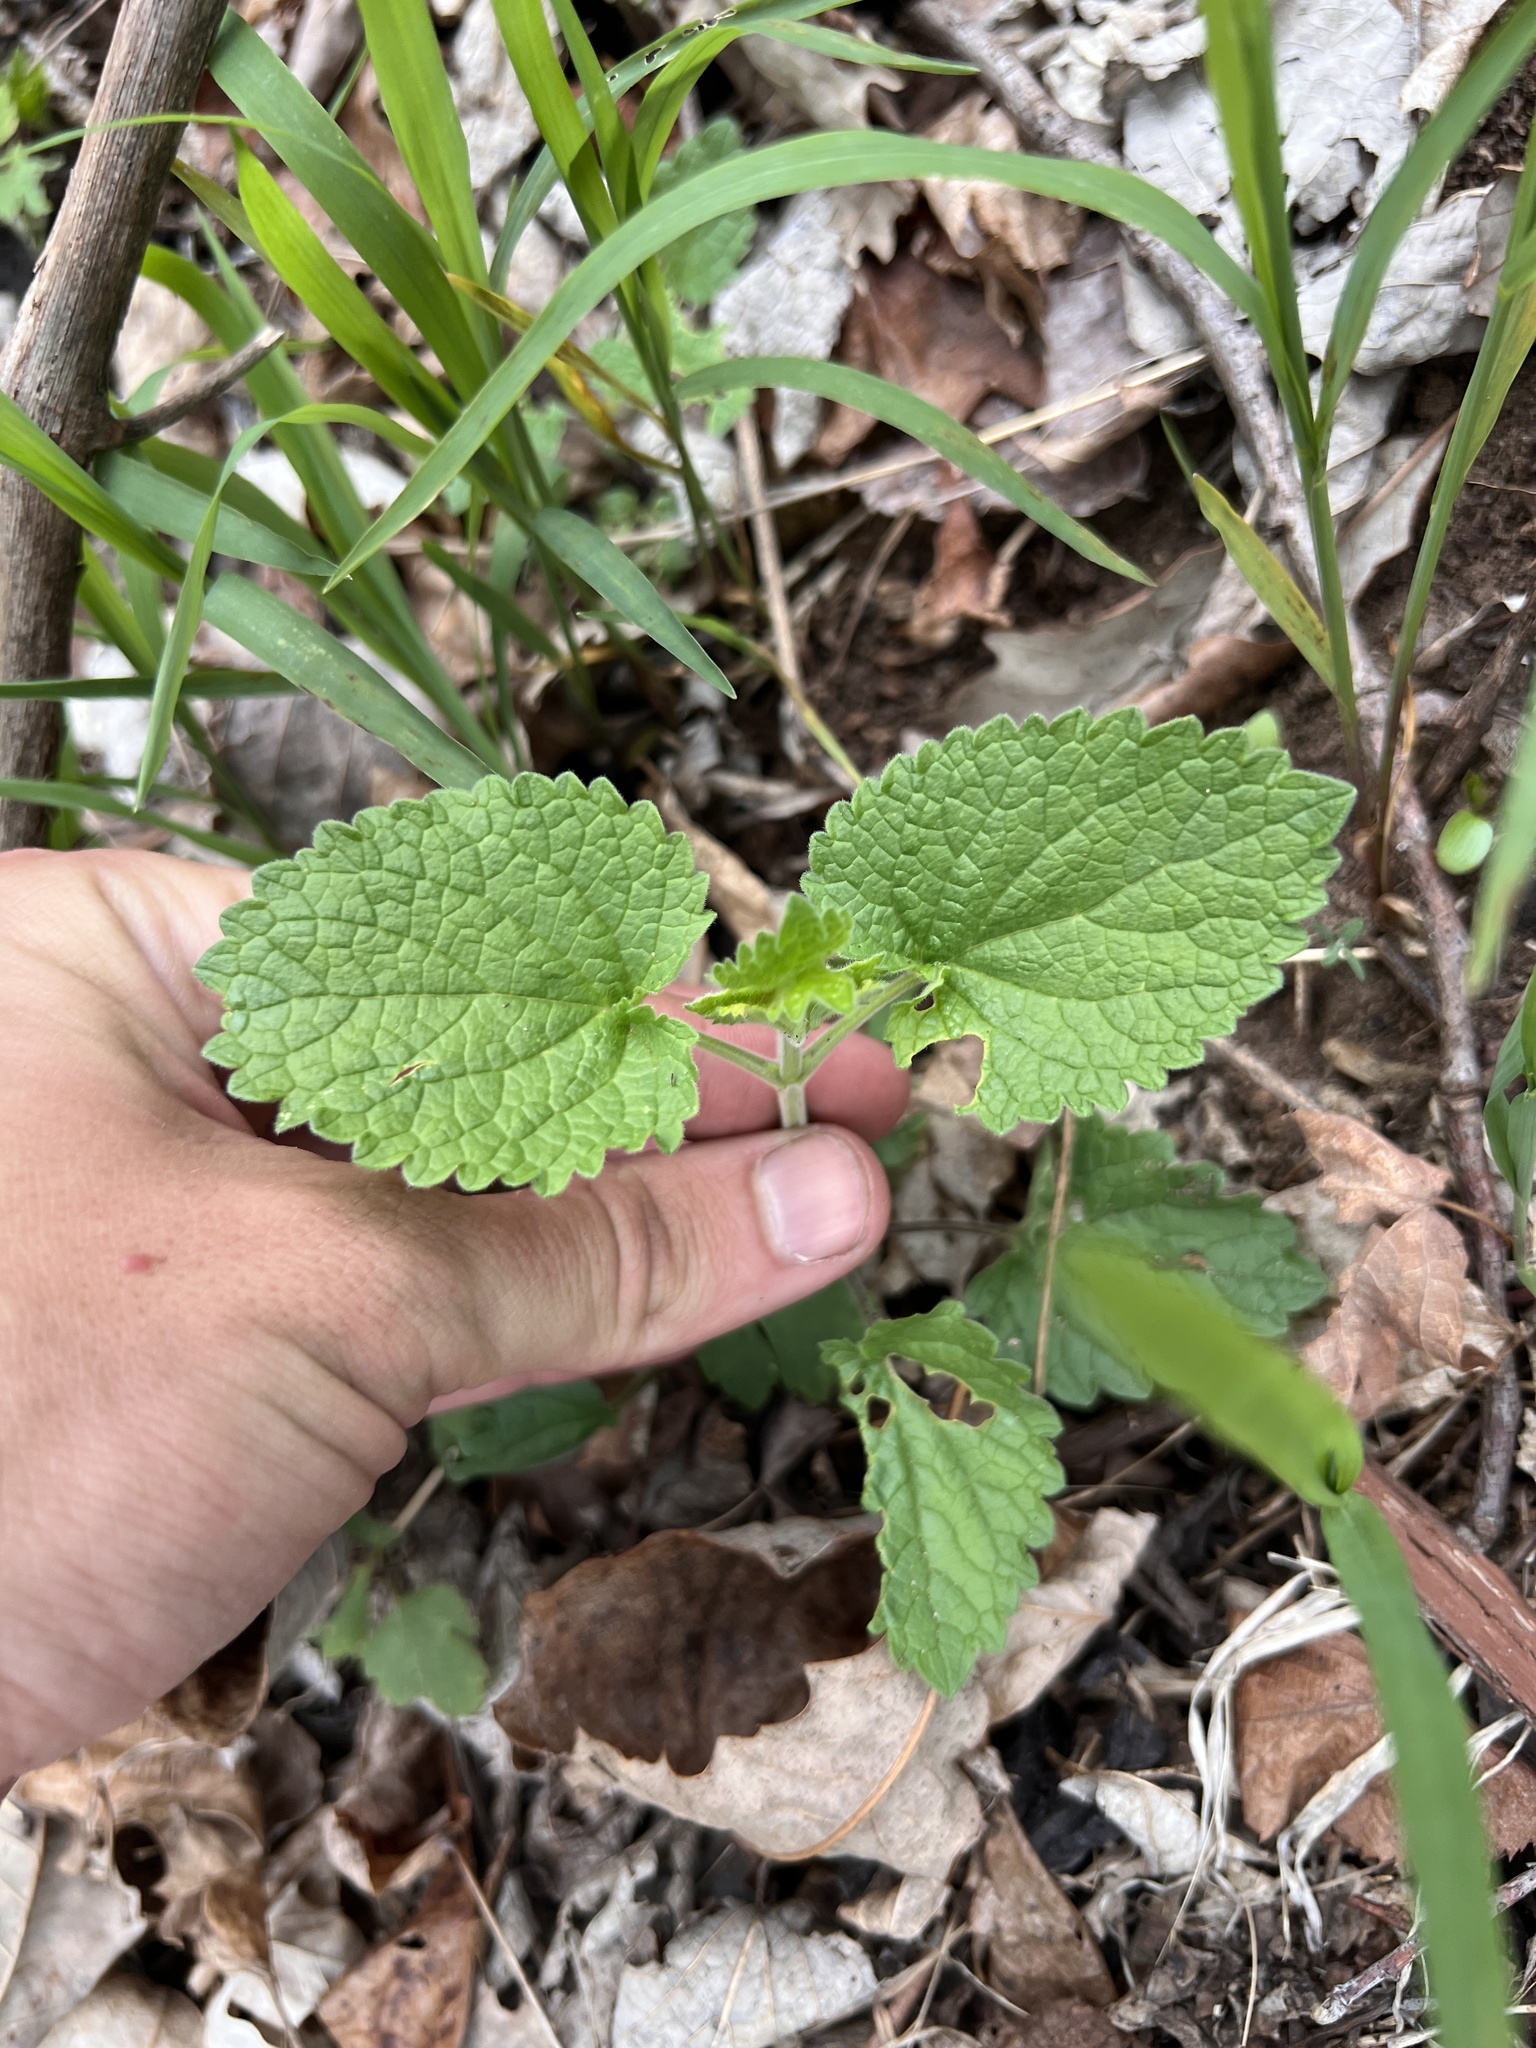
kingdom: Plantae
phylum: Tracheophyta
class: Magnoliopsida
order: Lamiales
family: Lamiaceae
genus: Scutellaria
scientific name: Scutellaria ovata
